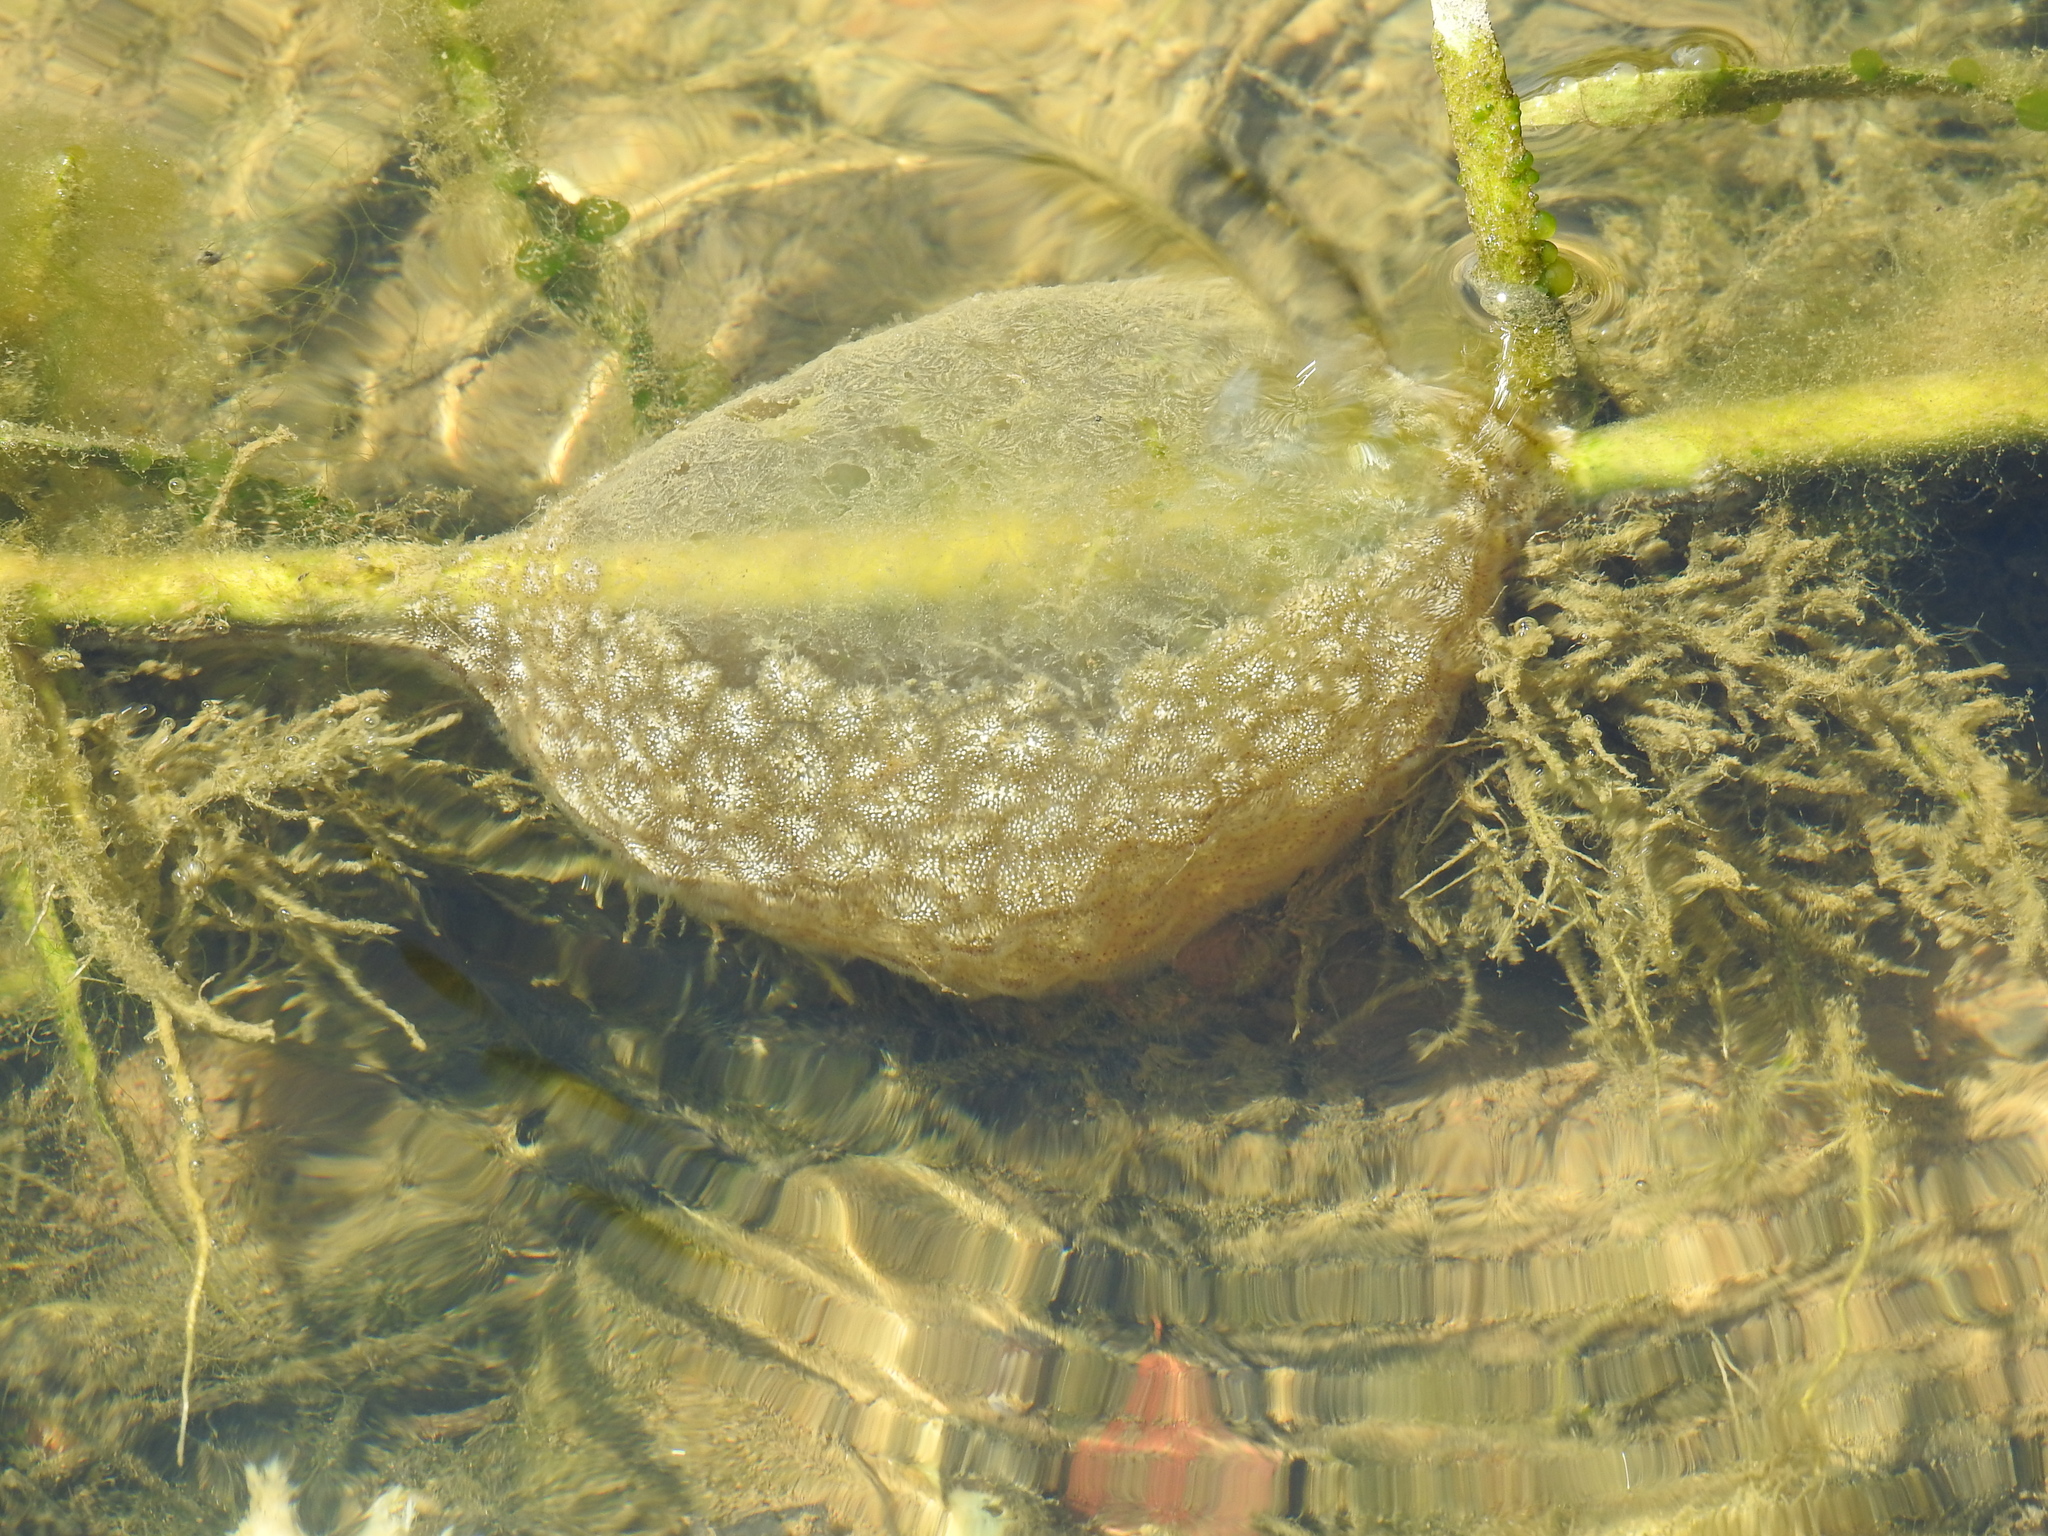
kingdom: Animalia
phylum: Bryozoa
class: Phylactolaemata
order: Plumatellida
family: Pectinatellidae
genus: Pectinatella
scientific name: Pectinatella magnifica
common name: Magnificent bryozoan
